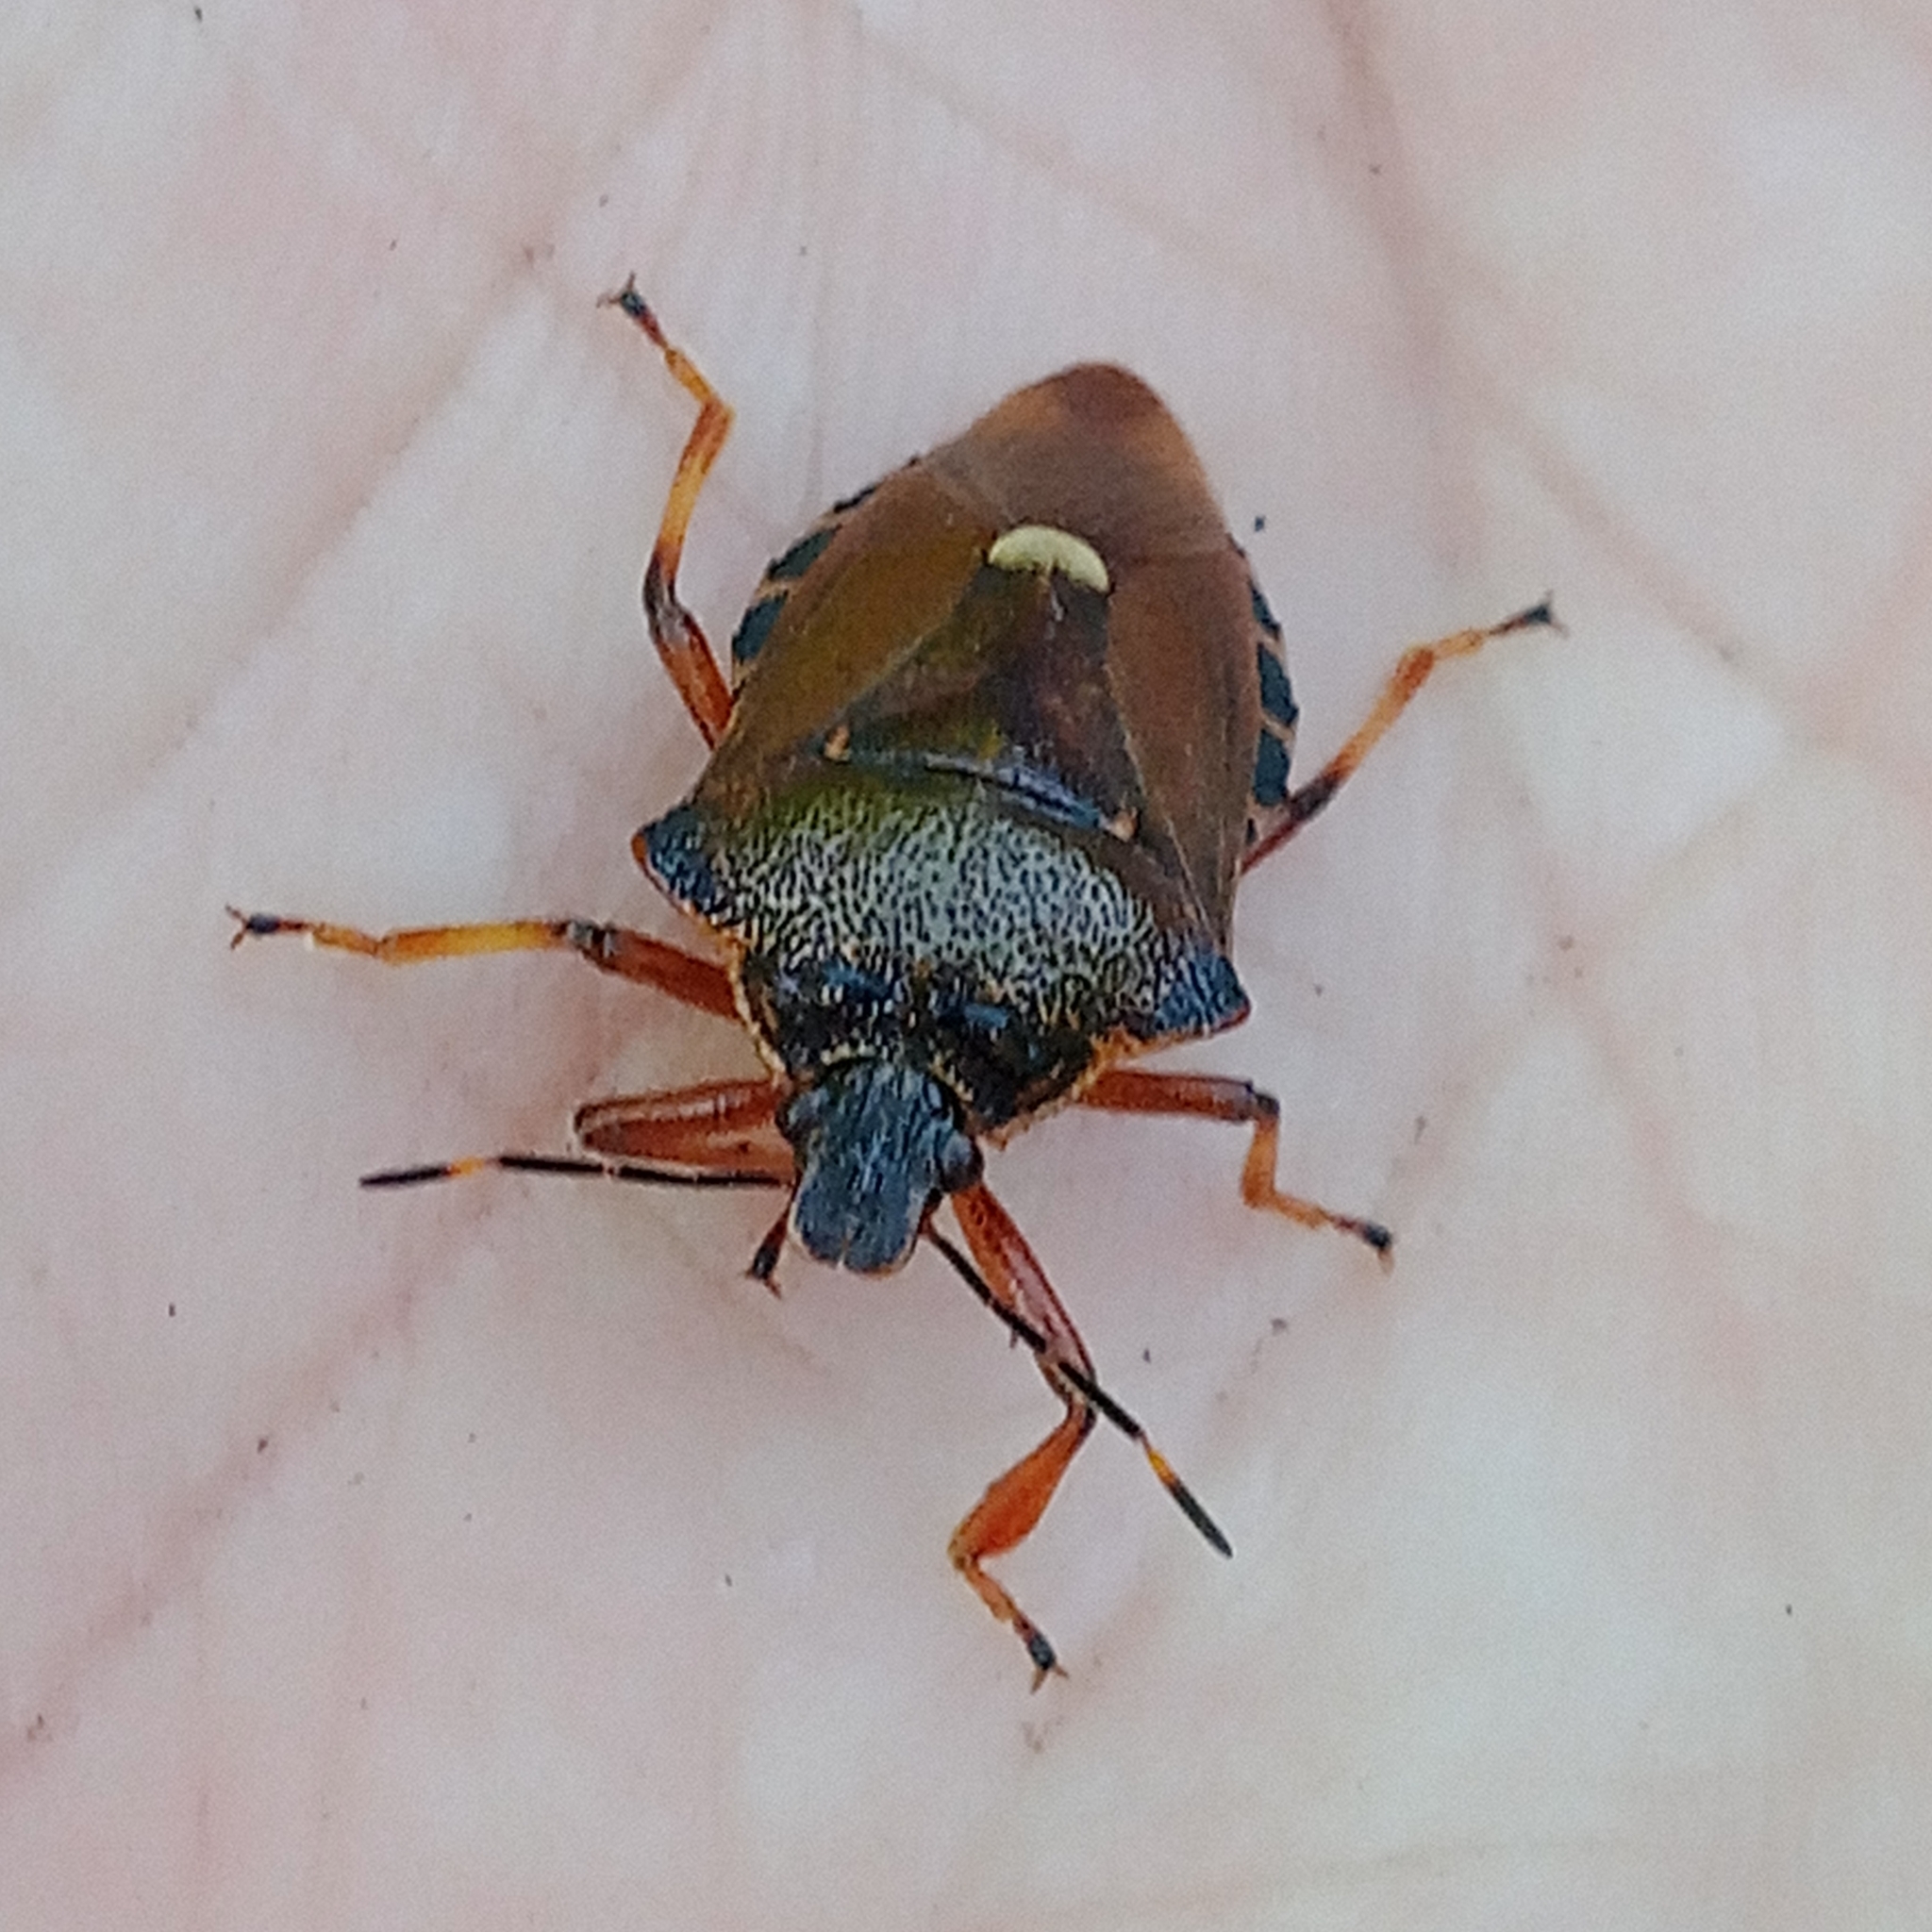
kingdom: Animalia
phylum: Arthropoda
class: Insecta
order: Hemiptera
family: Pentatomidae
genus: Pinthaeus
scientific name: Pinthaeus sanguinipes
